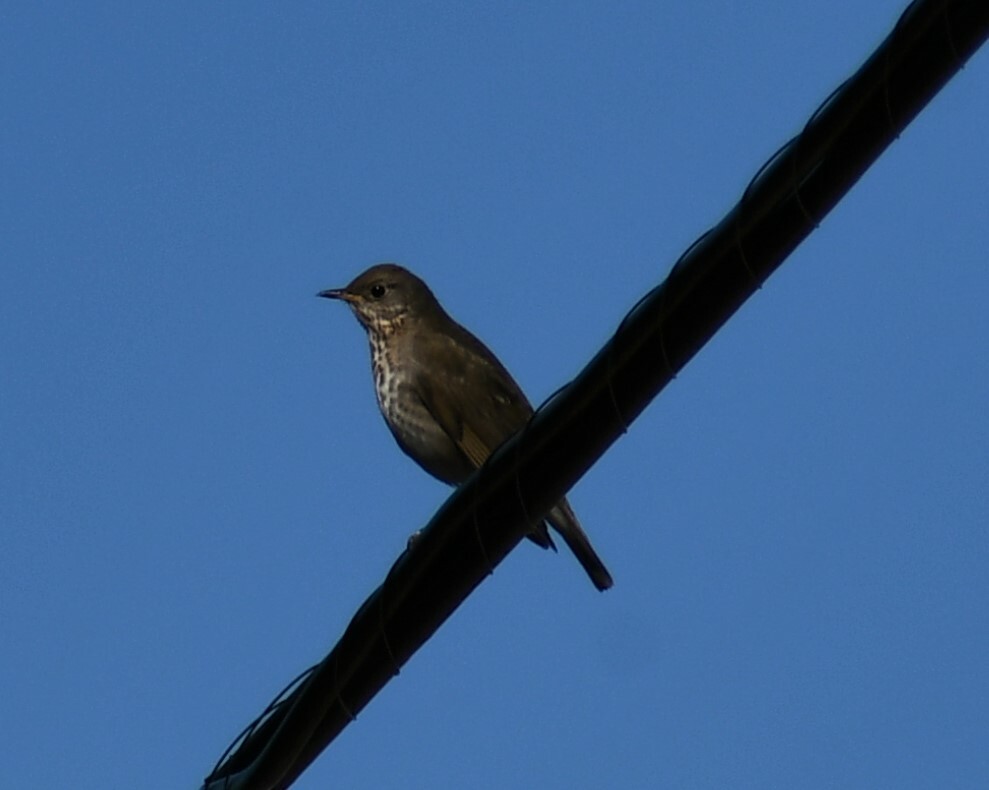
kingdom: Animalia
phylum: Chordata
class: Aves
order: Passeriformes
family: Turdidae
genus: Catharus
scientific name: Catharus minimus
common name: Grey-cheeked thrush
